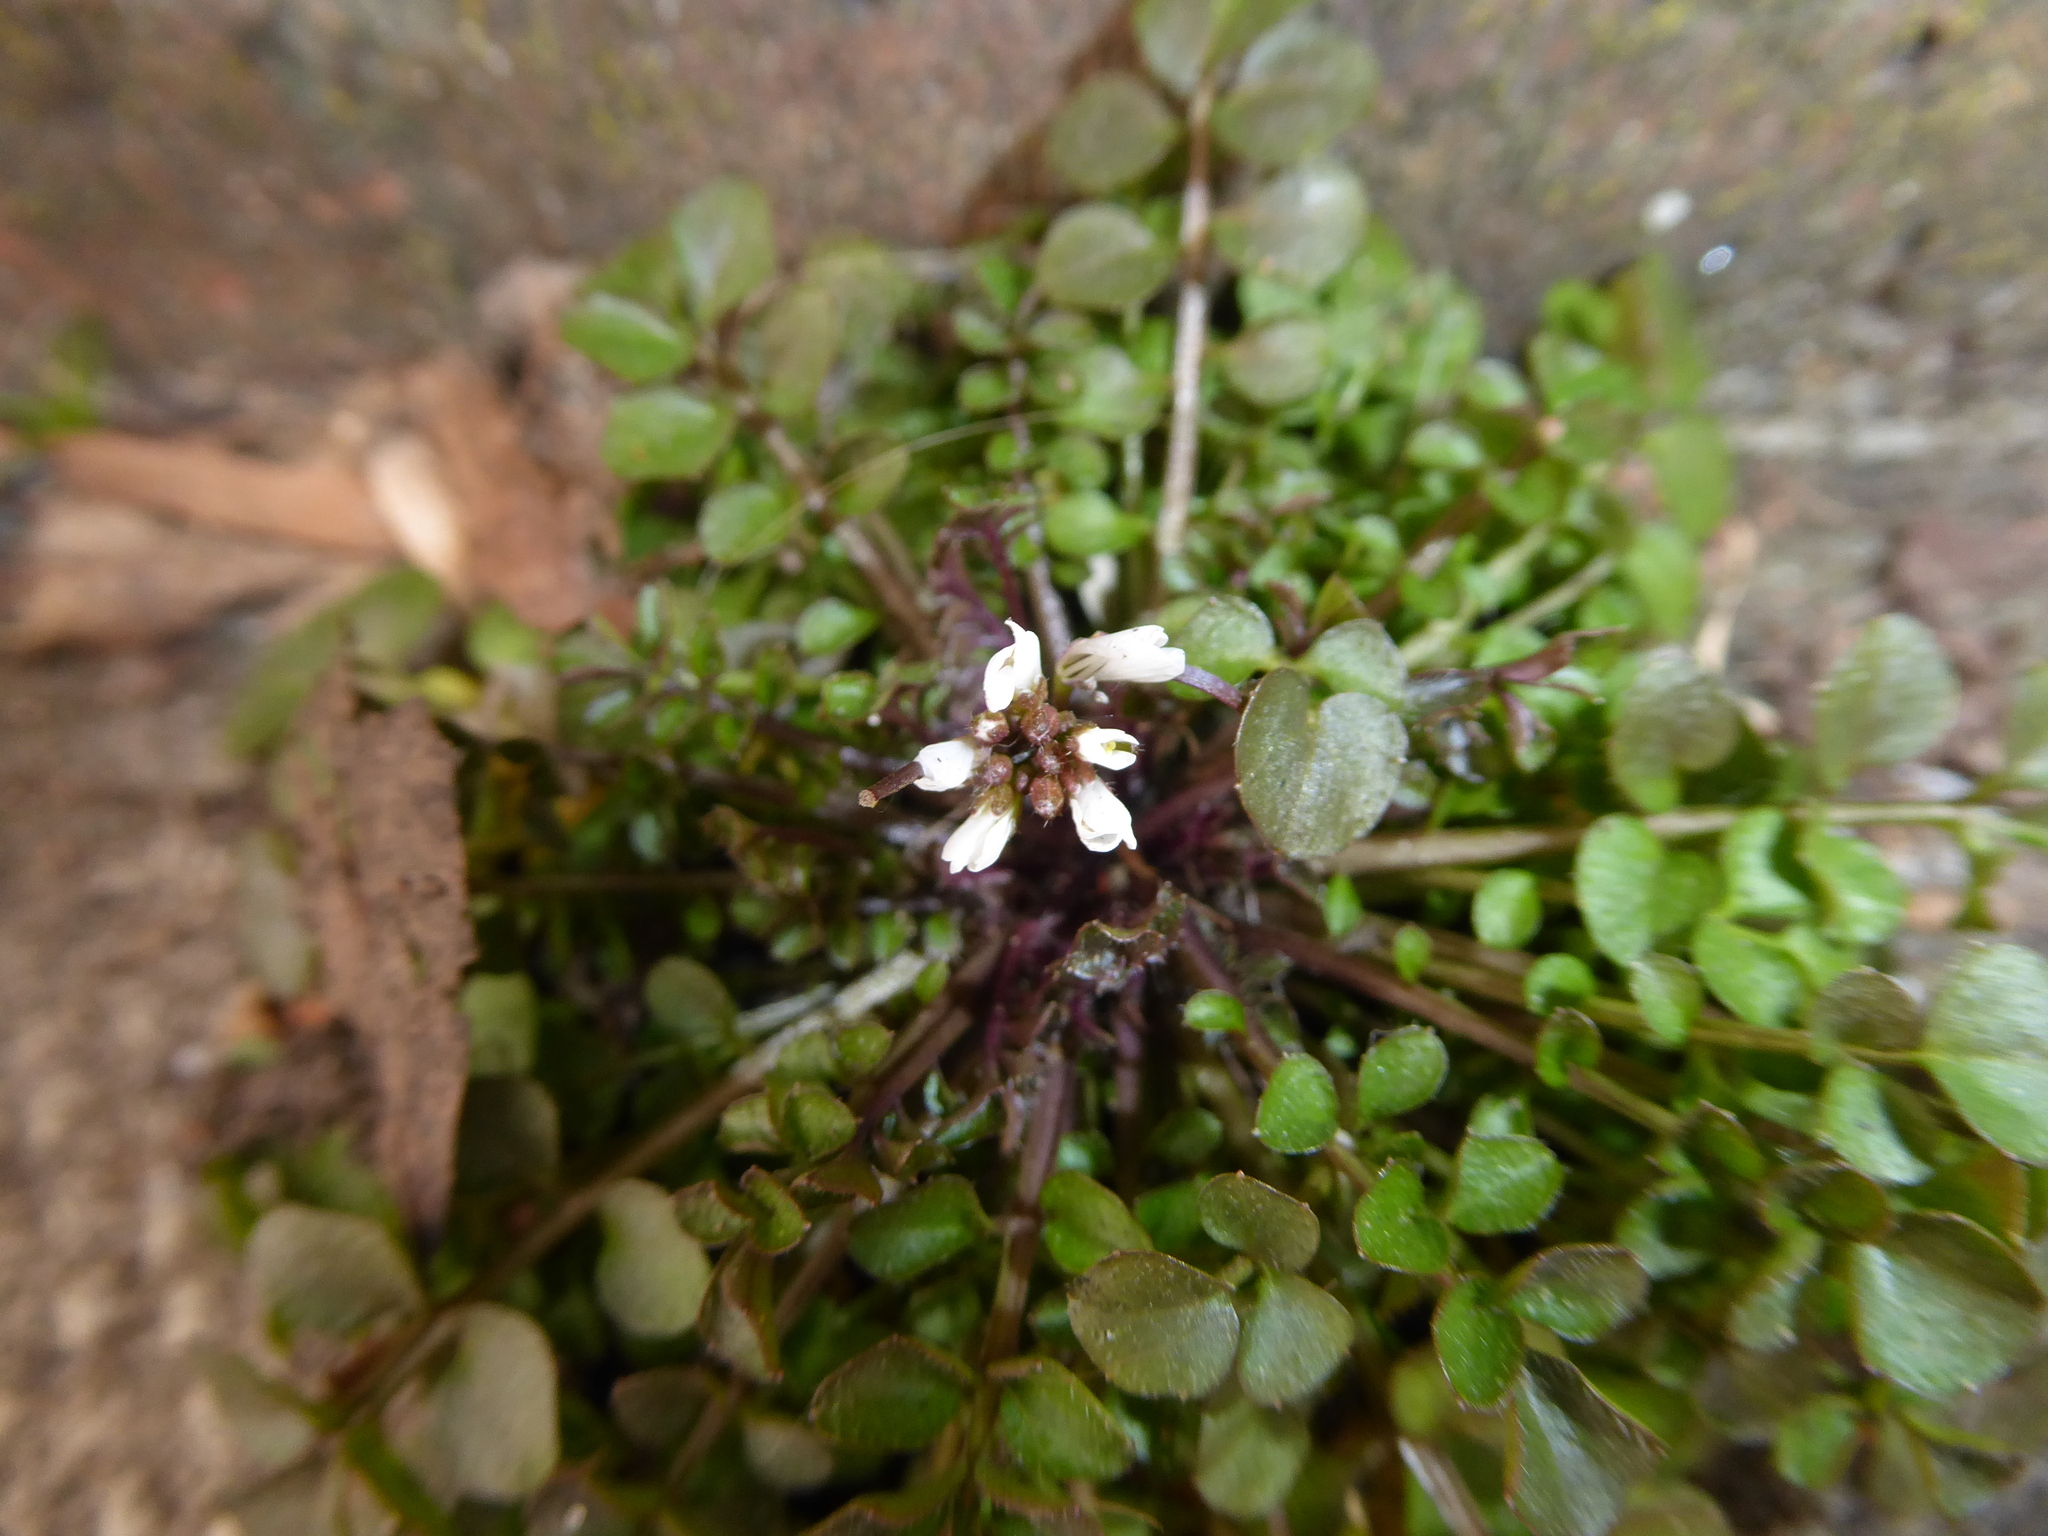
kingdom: Plantae
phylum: Tracheophyta
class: Magnoliopsida
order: Brassicales
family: Brassicaceae
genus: Cardamine
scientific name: Cardamine hirsuta
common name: Hairy bittercress
